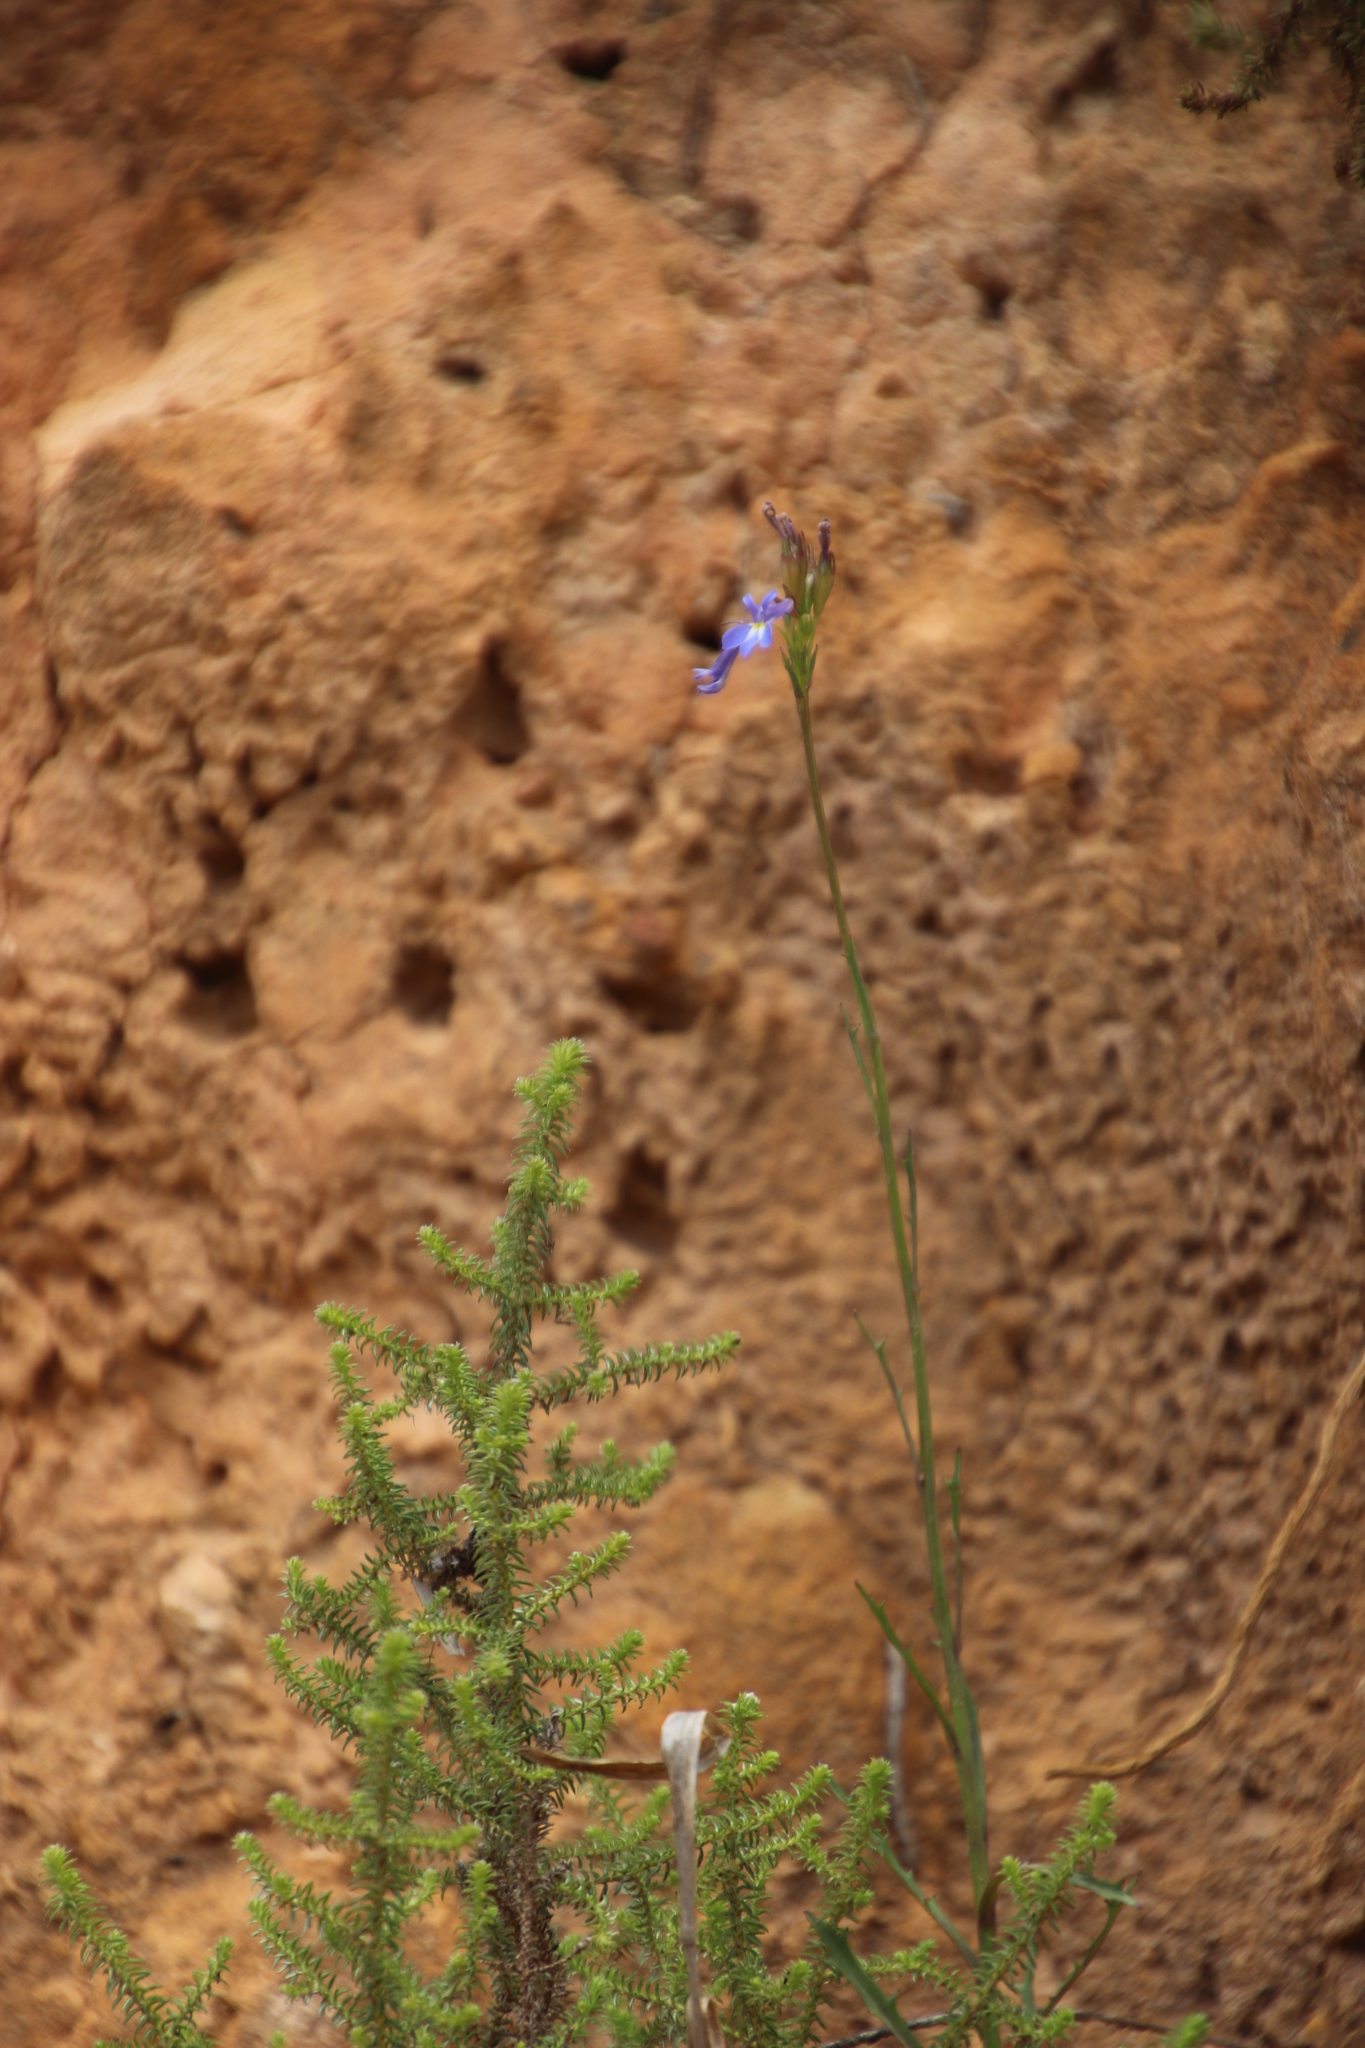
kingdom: Plantae
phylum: Tracheophyta
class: Magnoliopsida
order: Asterales
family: Campanulaceae
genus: Lobelia
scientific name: Lobelia comosa
